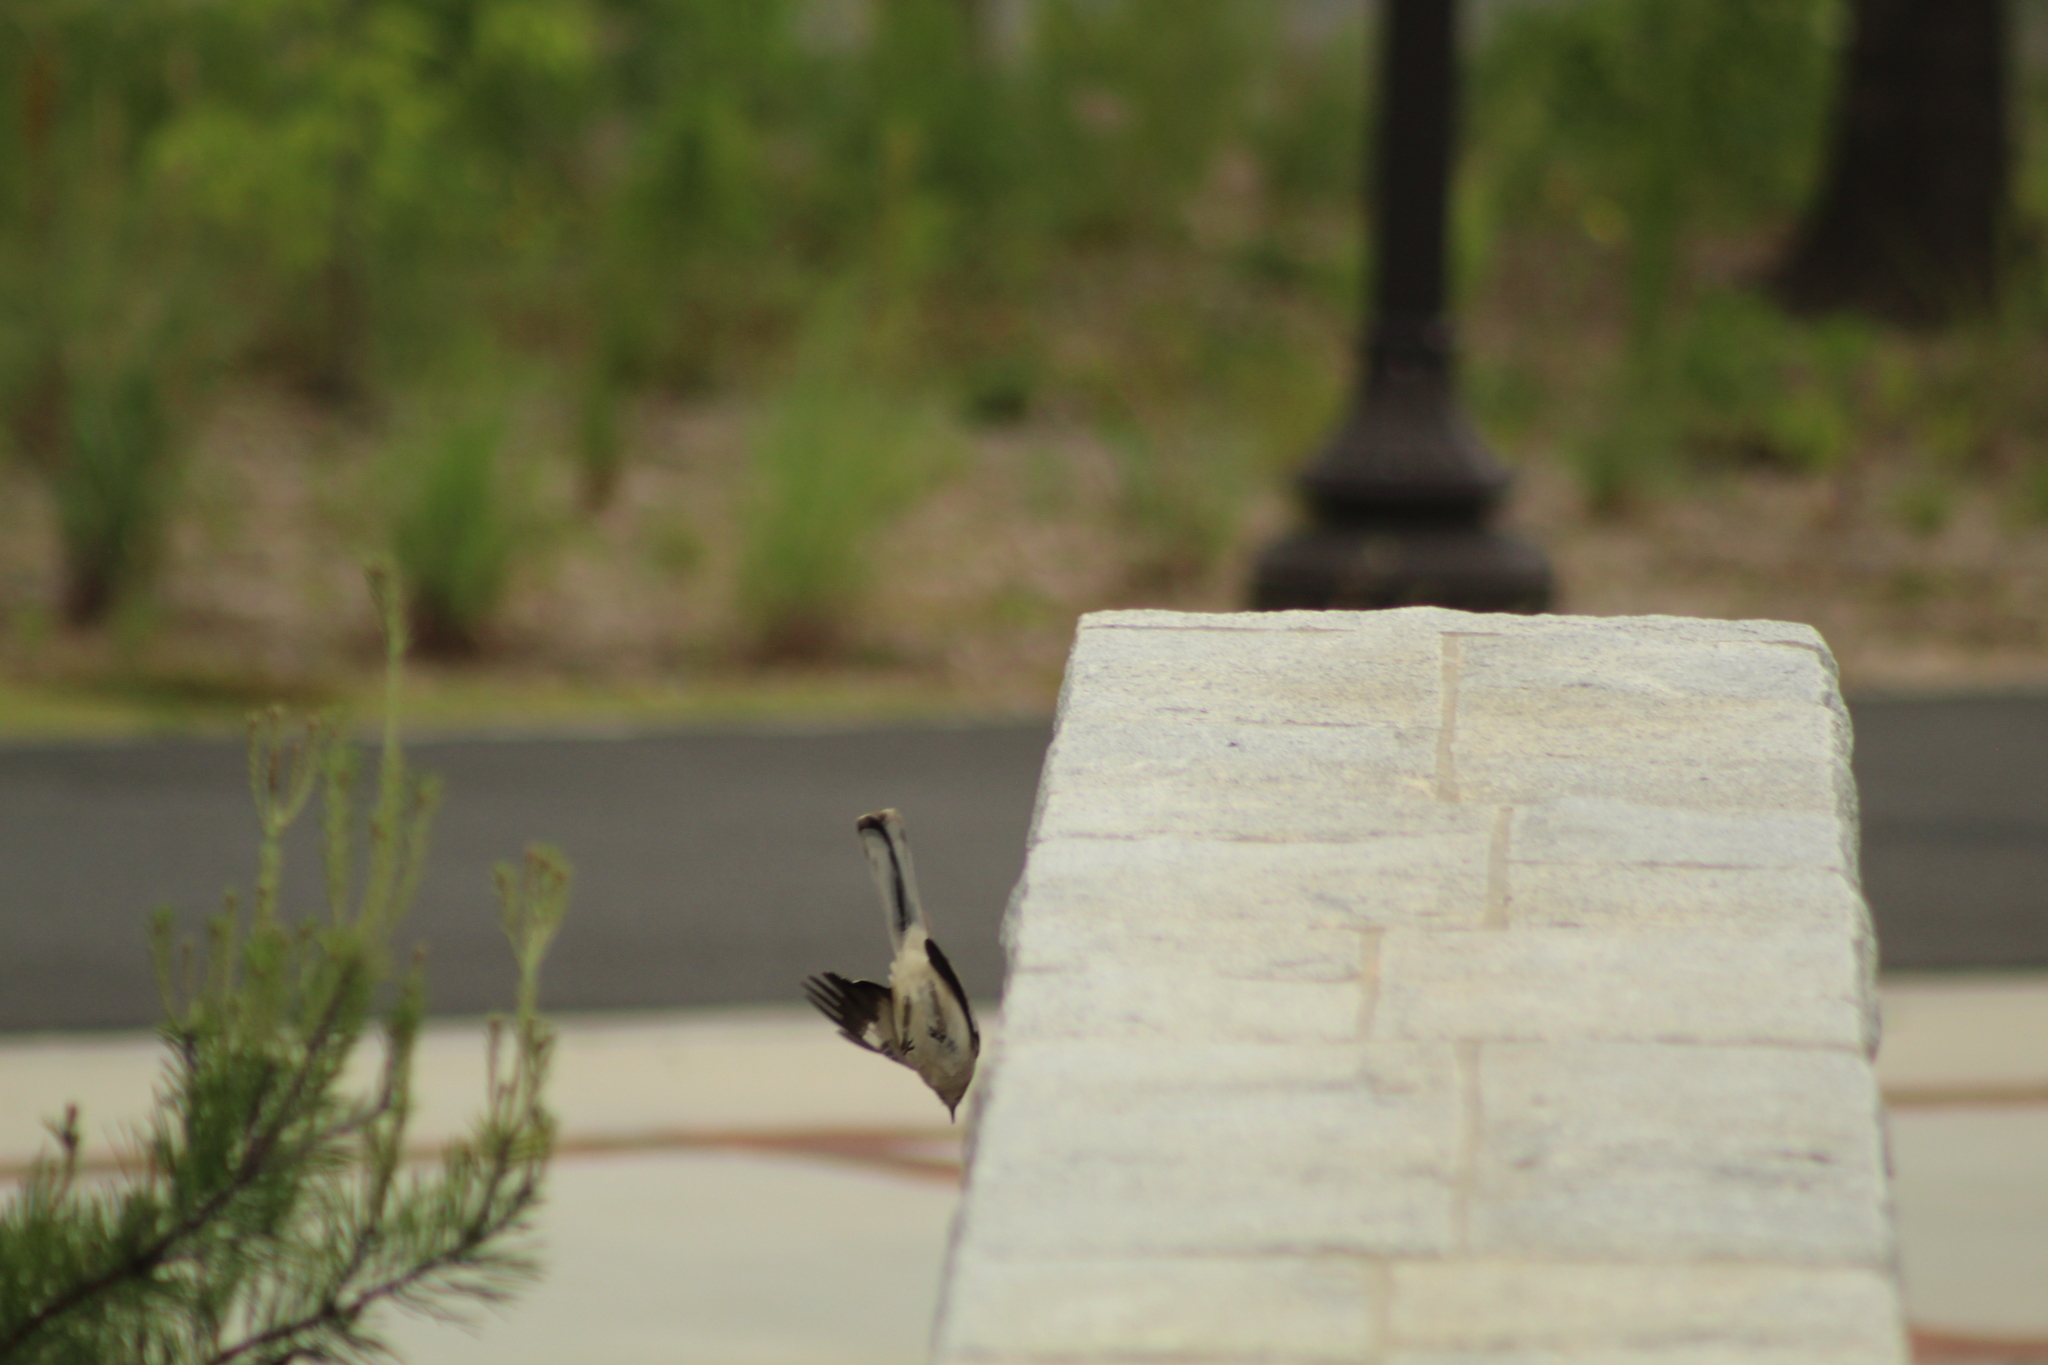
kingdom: Animalia
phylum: Chordata
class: Aves
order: Passeriformes
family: Mimidae
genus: Mimus
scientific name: Mimus polyglottos
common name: Northern mockingbird
